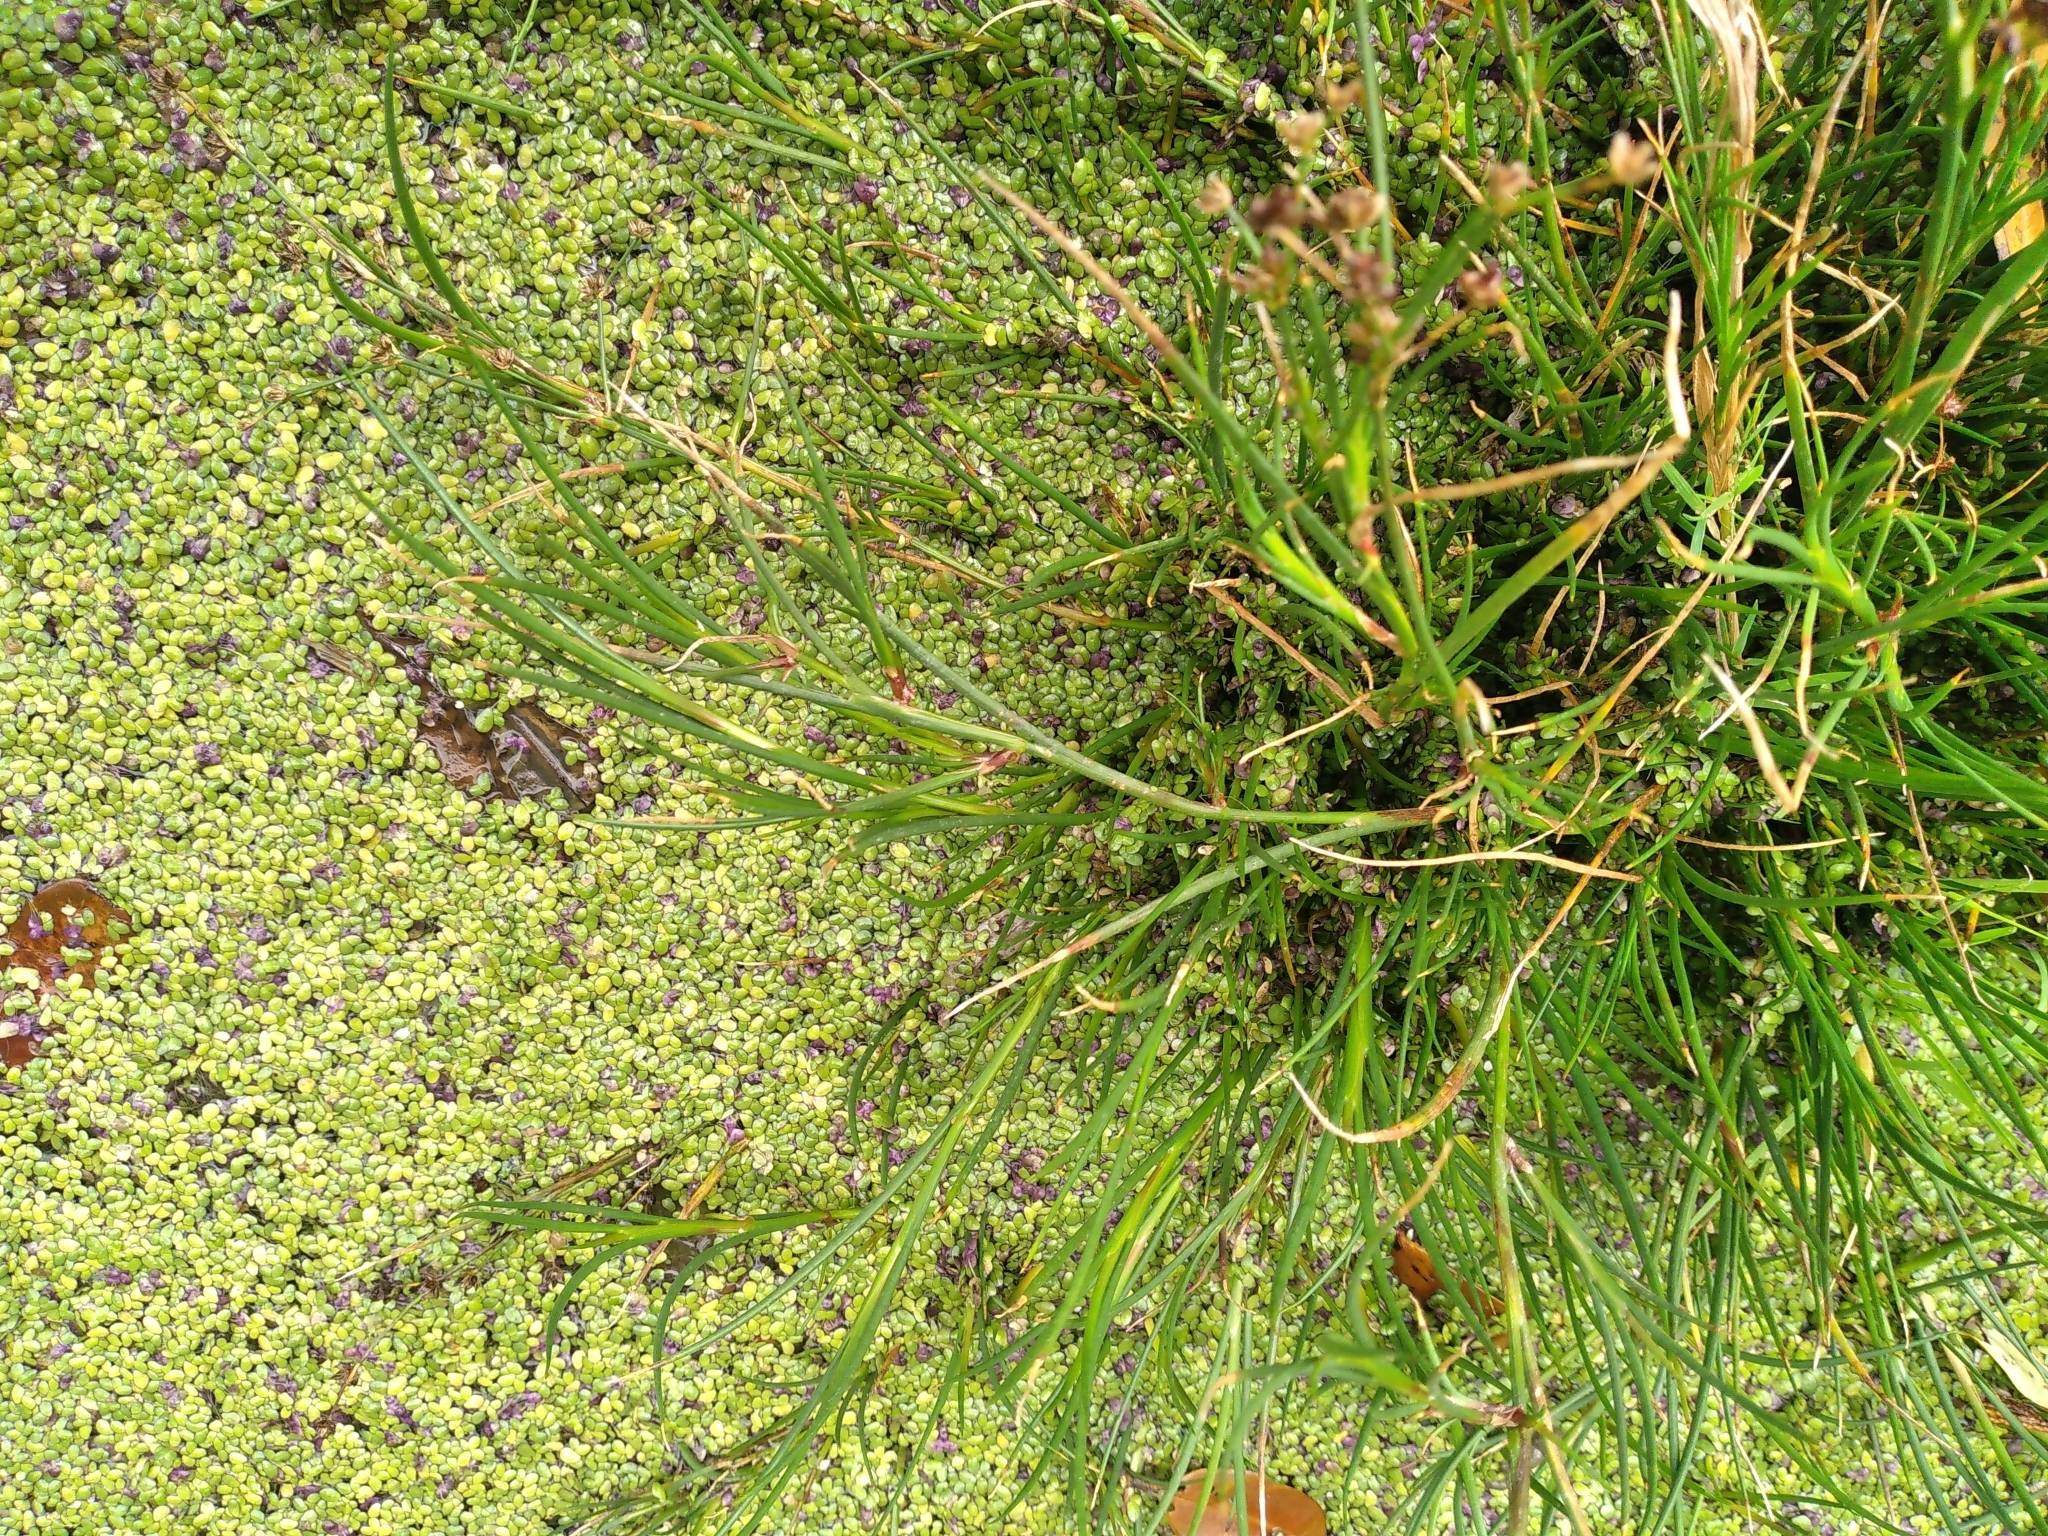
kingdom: Plantae
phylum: Tracheophyta
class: Liliopsida
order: Poales
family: Juncaceae
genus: Juncus
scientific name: Juncus articulatus
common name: Jointed rush
